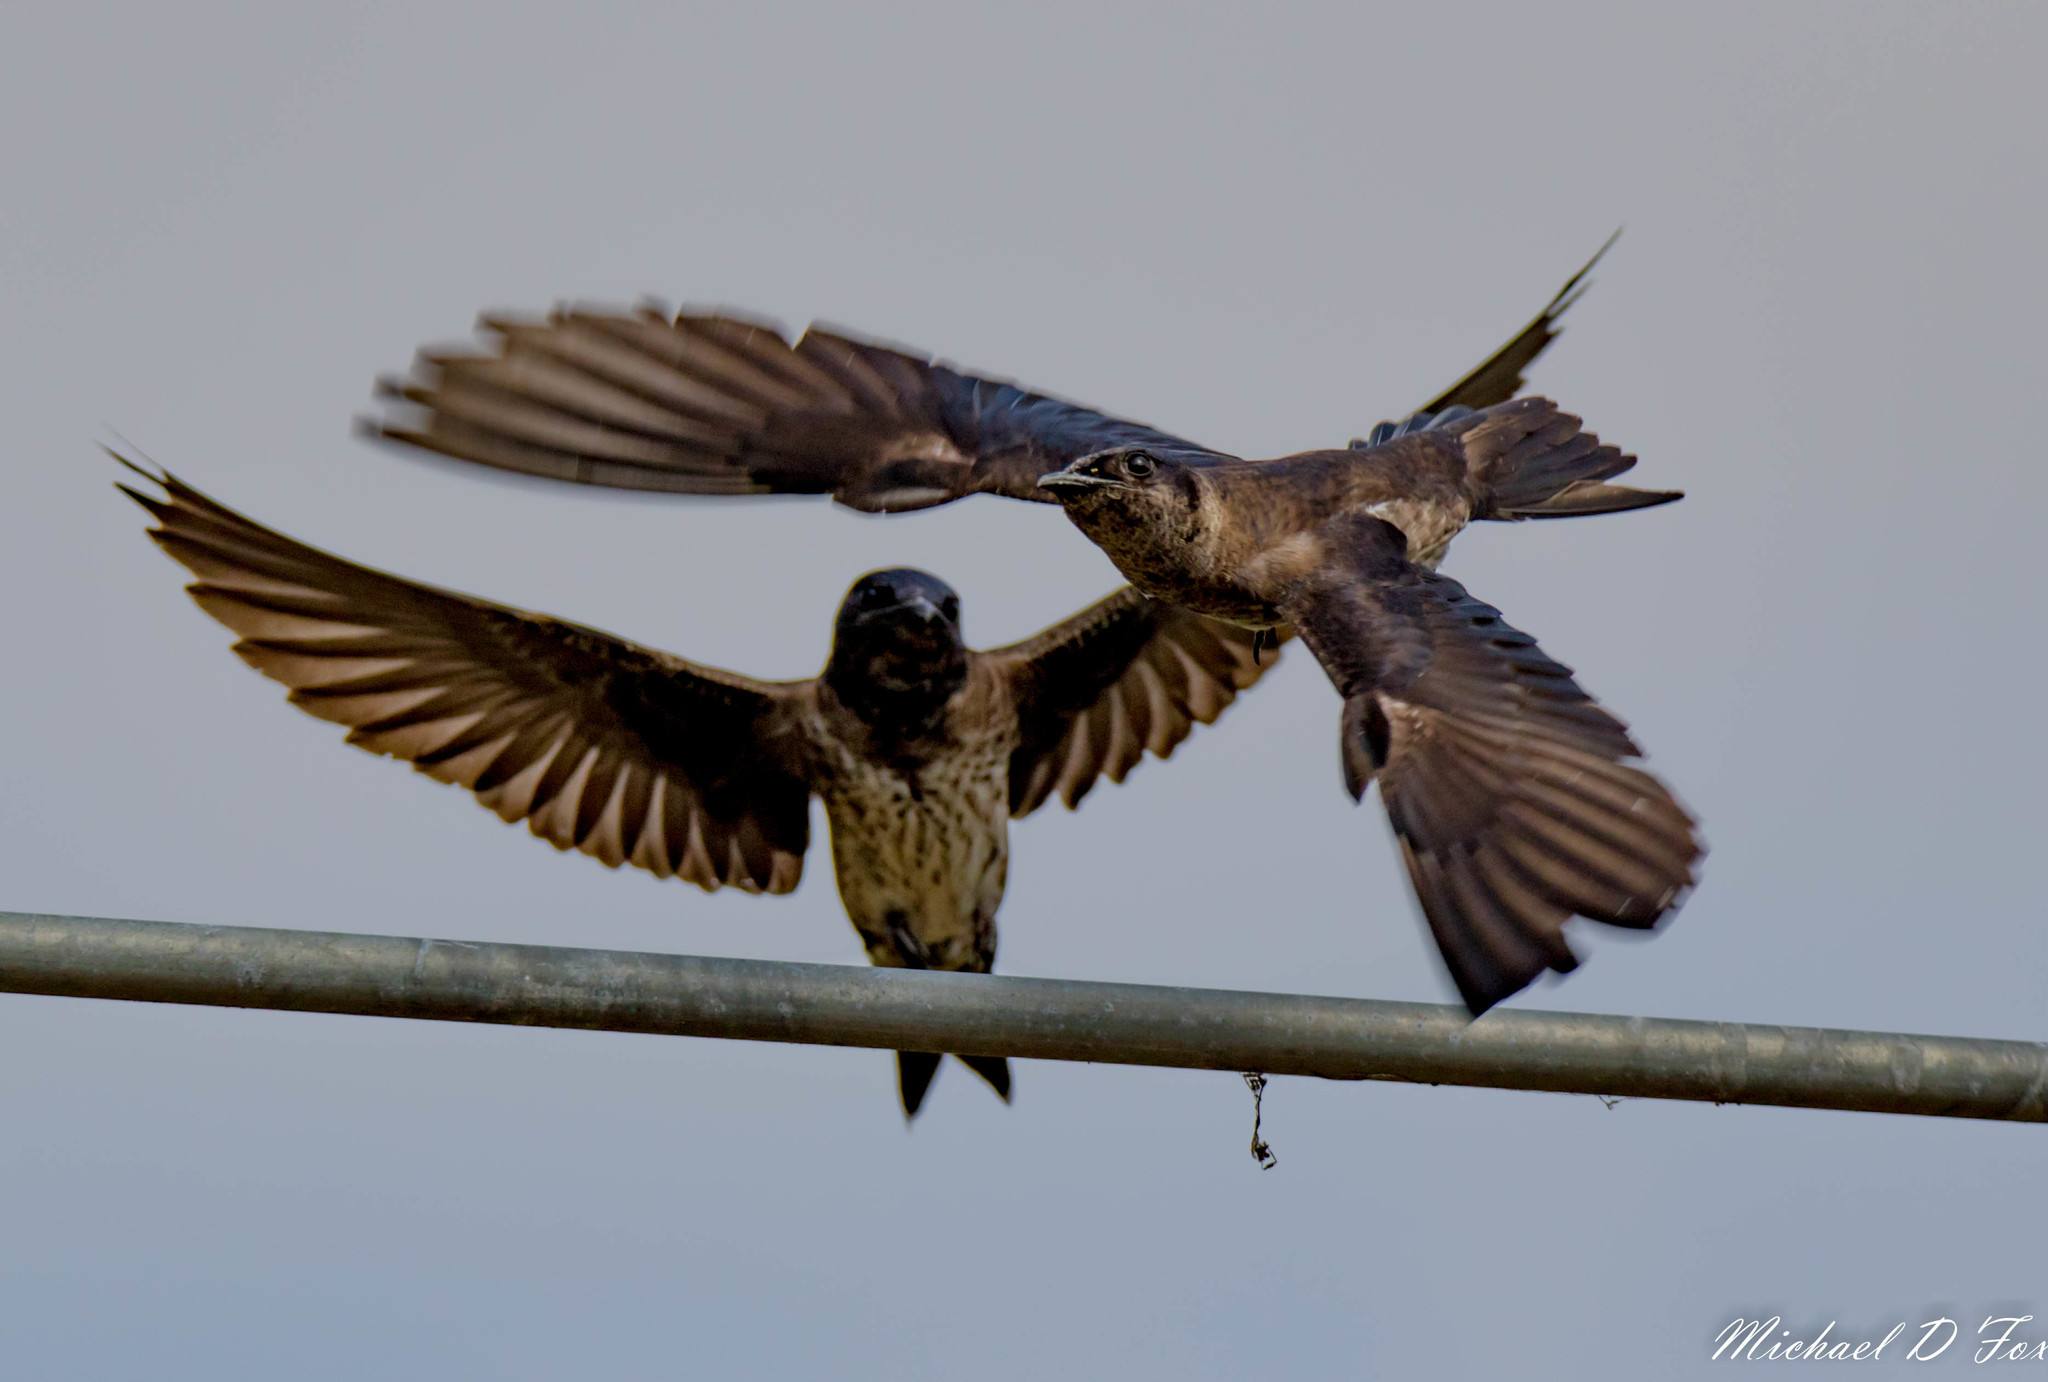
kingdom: Animalia
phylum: Chordata
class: Aves
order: Passeriformes
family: Hirundinidae
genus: Progne
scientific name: Progne subis
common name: Purple martin
